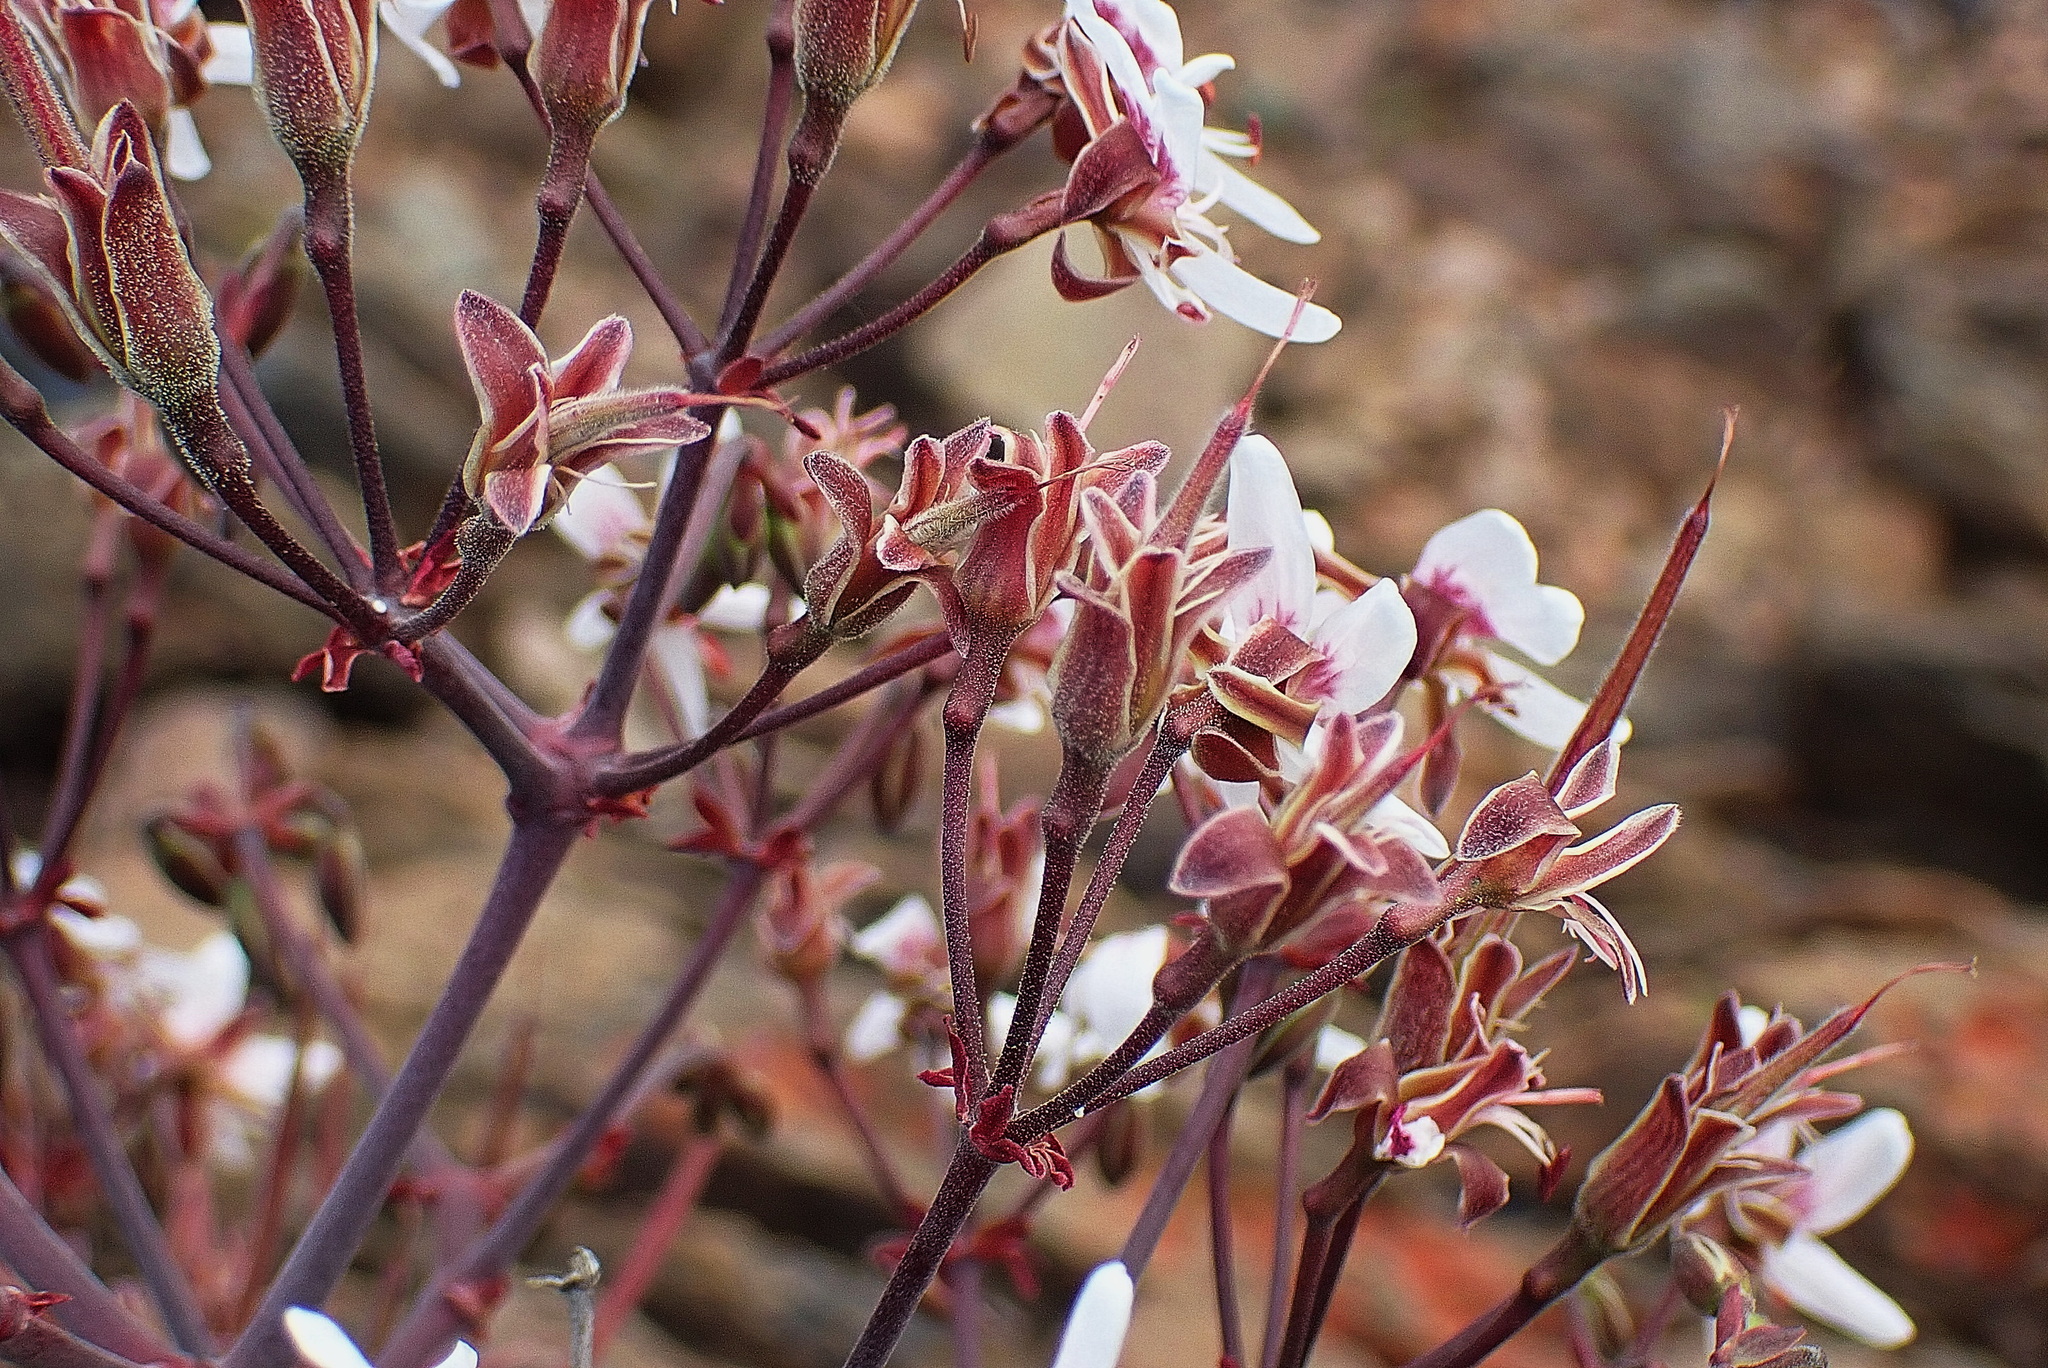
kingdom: Plantae
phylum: Tracheophyta
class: Magnoliopsida
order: Geraniales
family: Geraniaceae
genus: Pelargonium
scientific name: Pelargonium crithmifolium
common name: Samphire-leaf pelargonium
